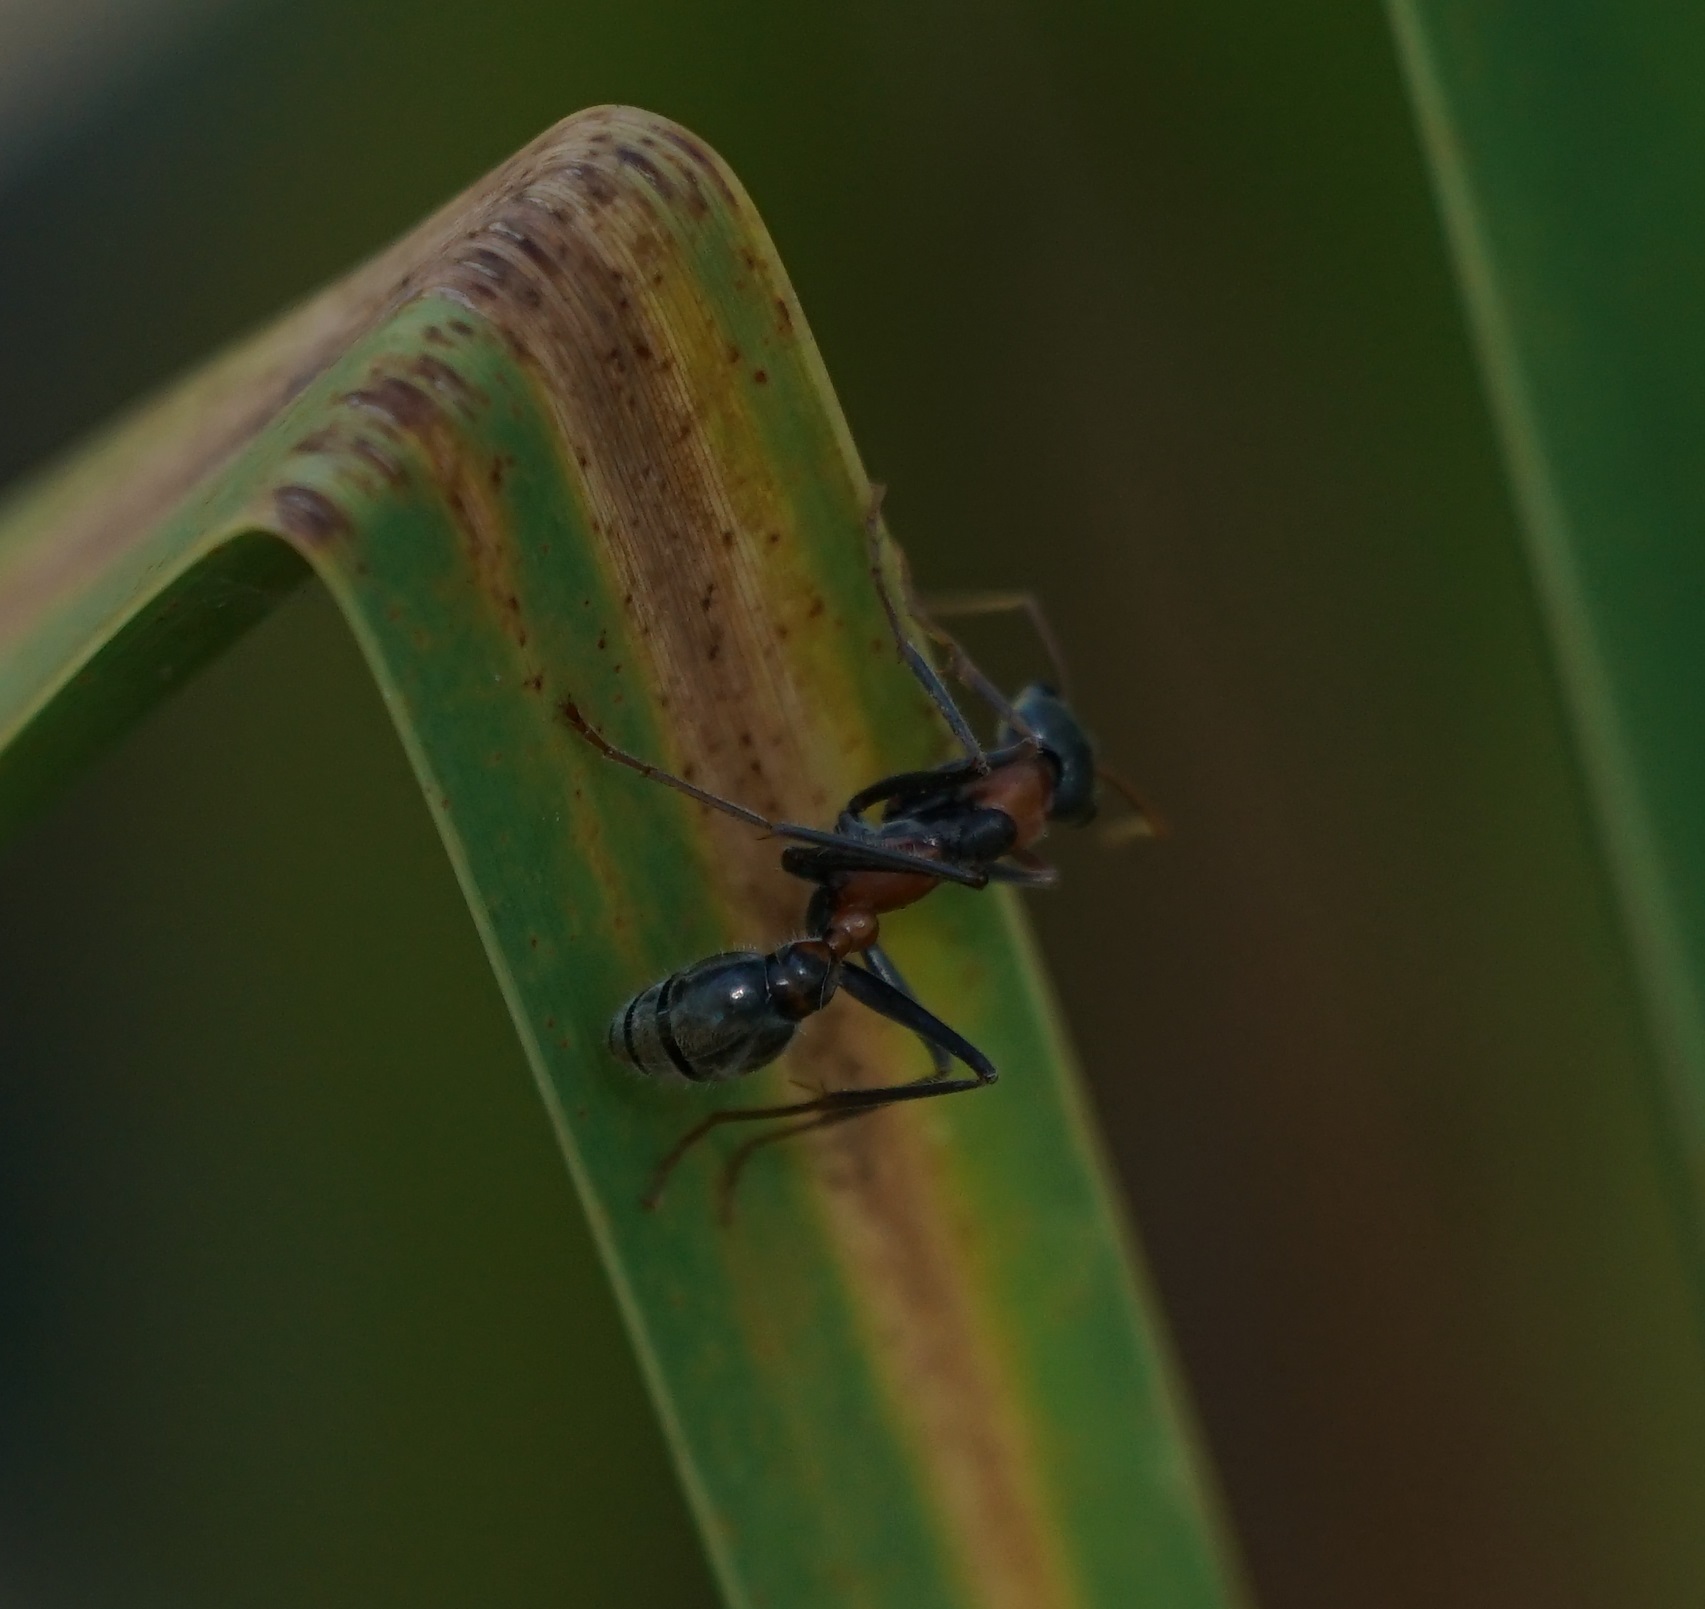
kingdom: Animalia
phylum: Arthropoda
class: Insecta
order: Hymenoptera
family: Formicidae
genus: Myrmecia
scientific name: Myrmecia nigrocincta
